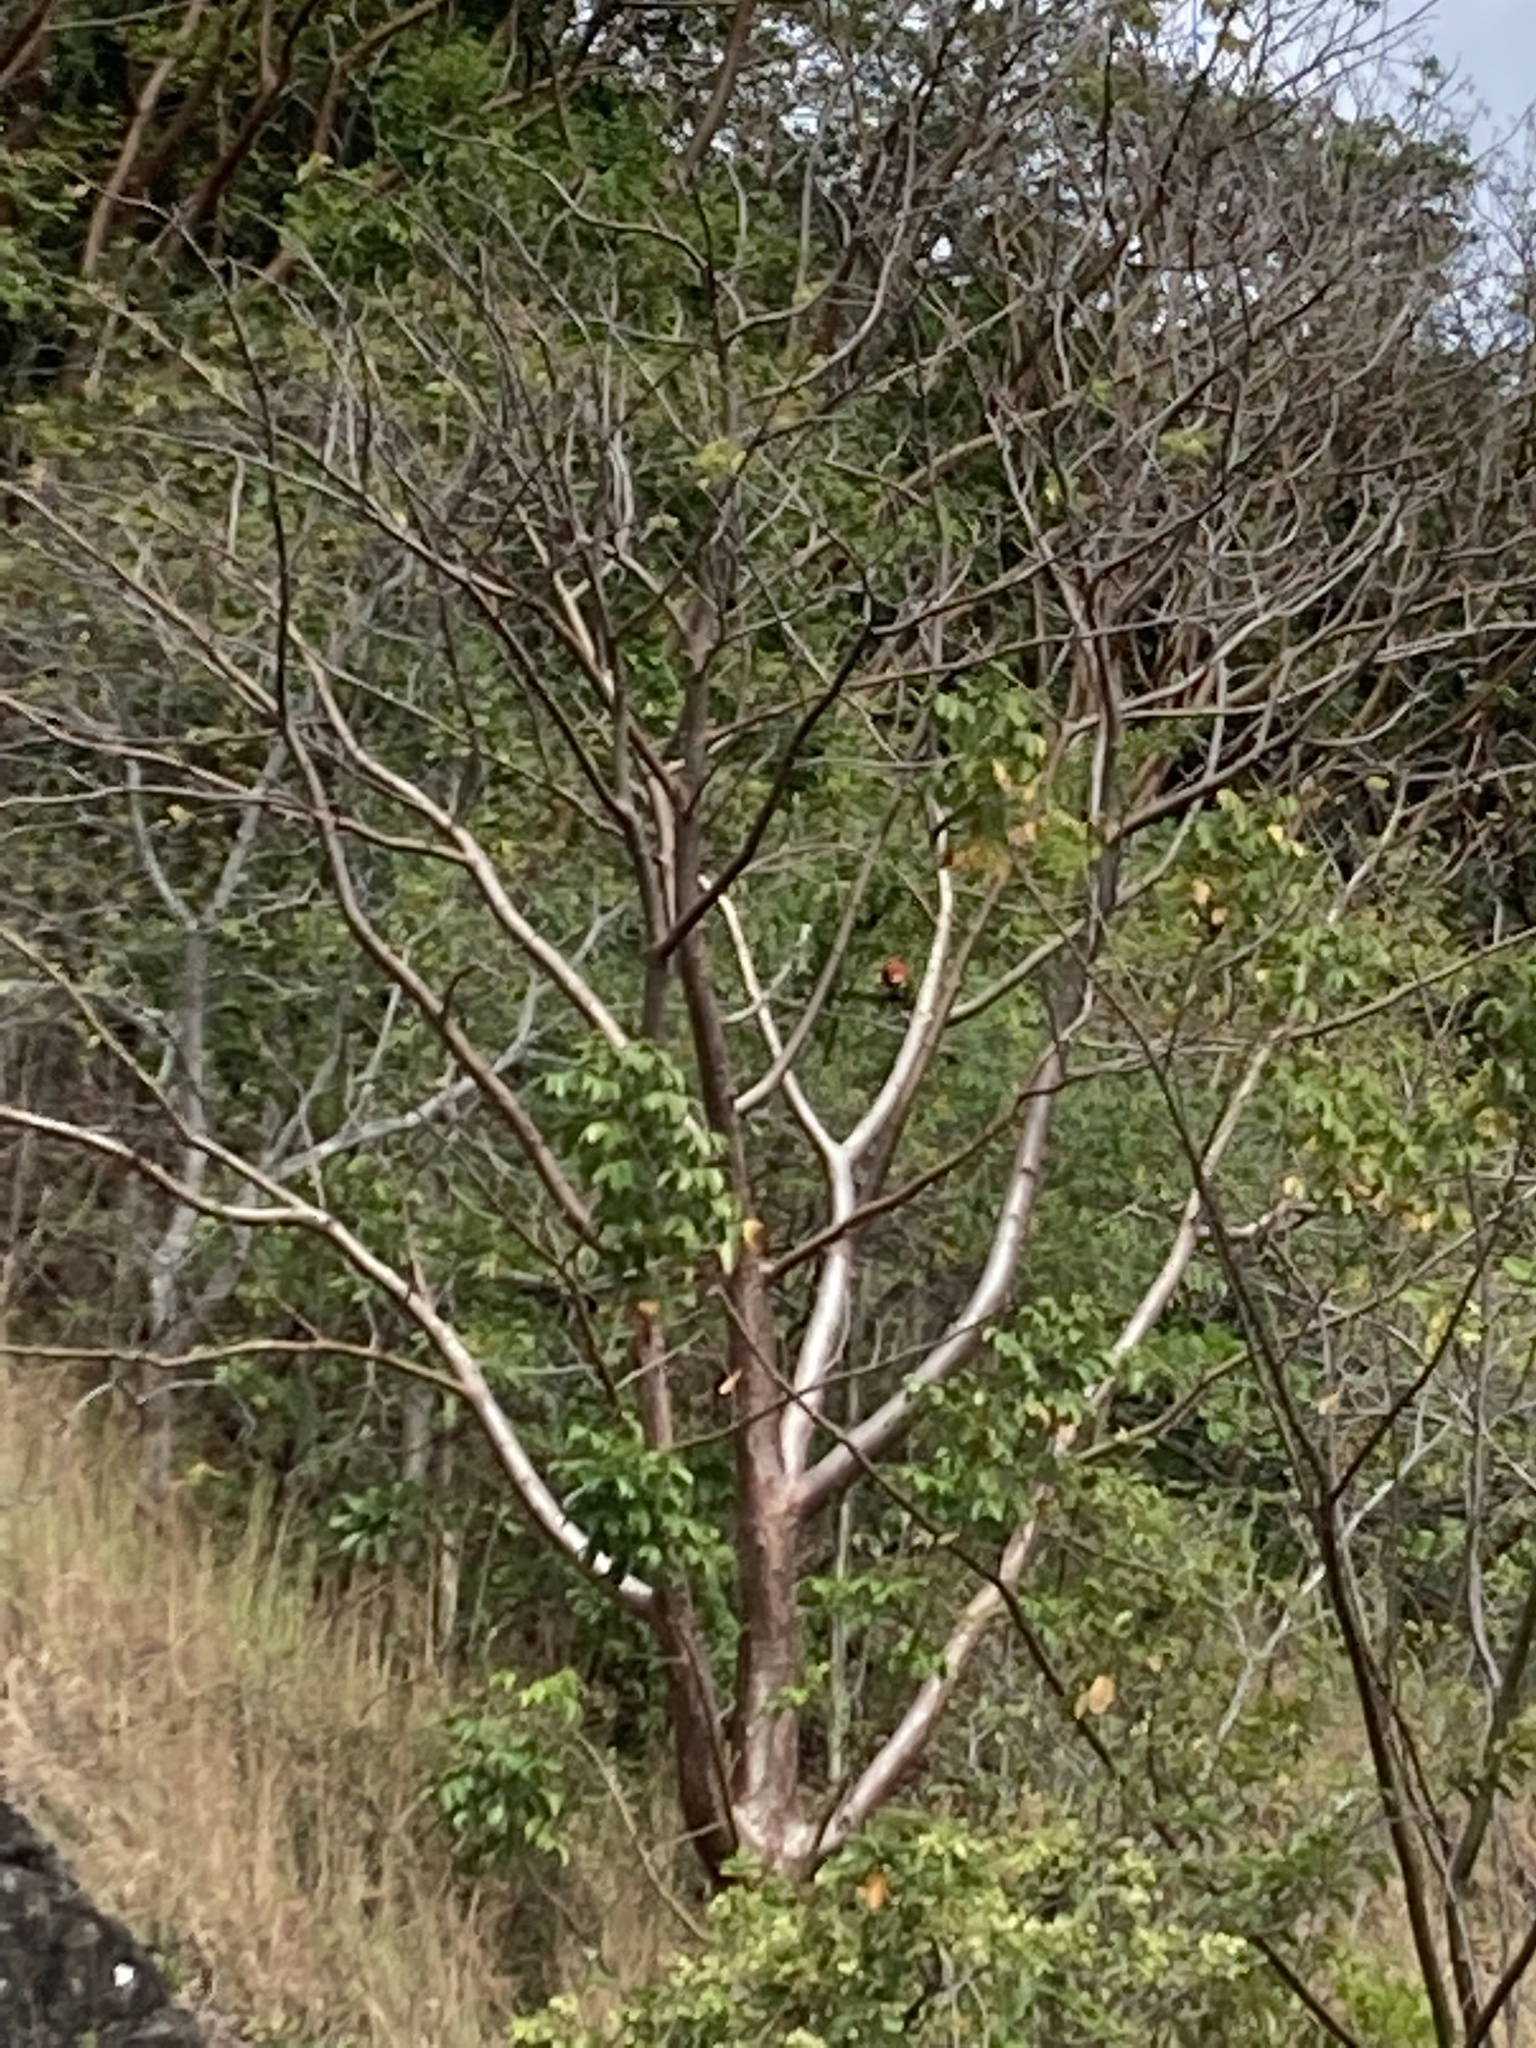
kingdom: Animalia
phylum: Chordata
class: Aves
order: Psittaciformes
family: Psittacidae
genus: Ara
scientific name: Ara macao
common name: Scarlet macaw
